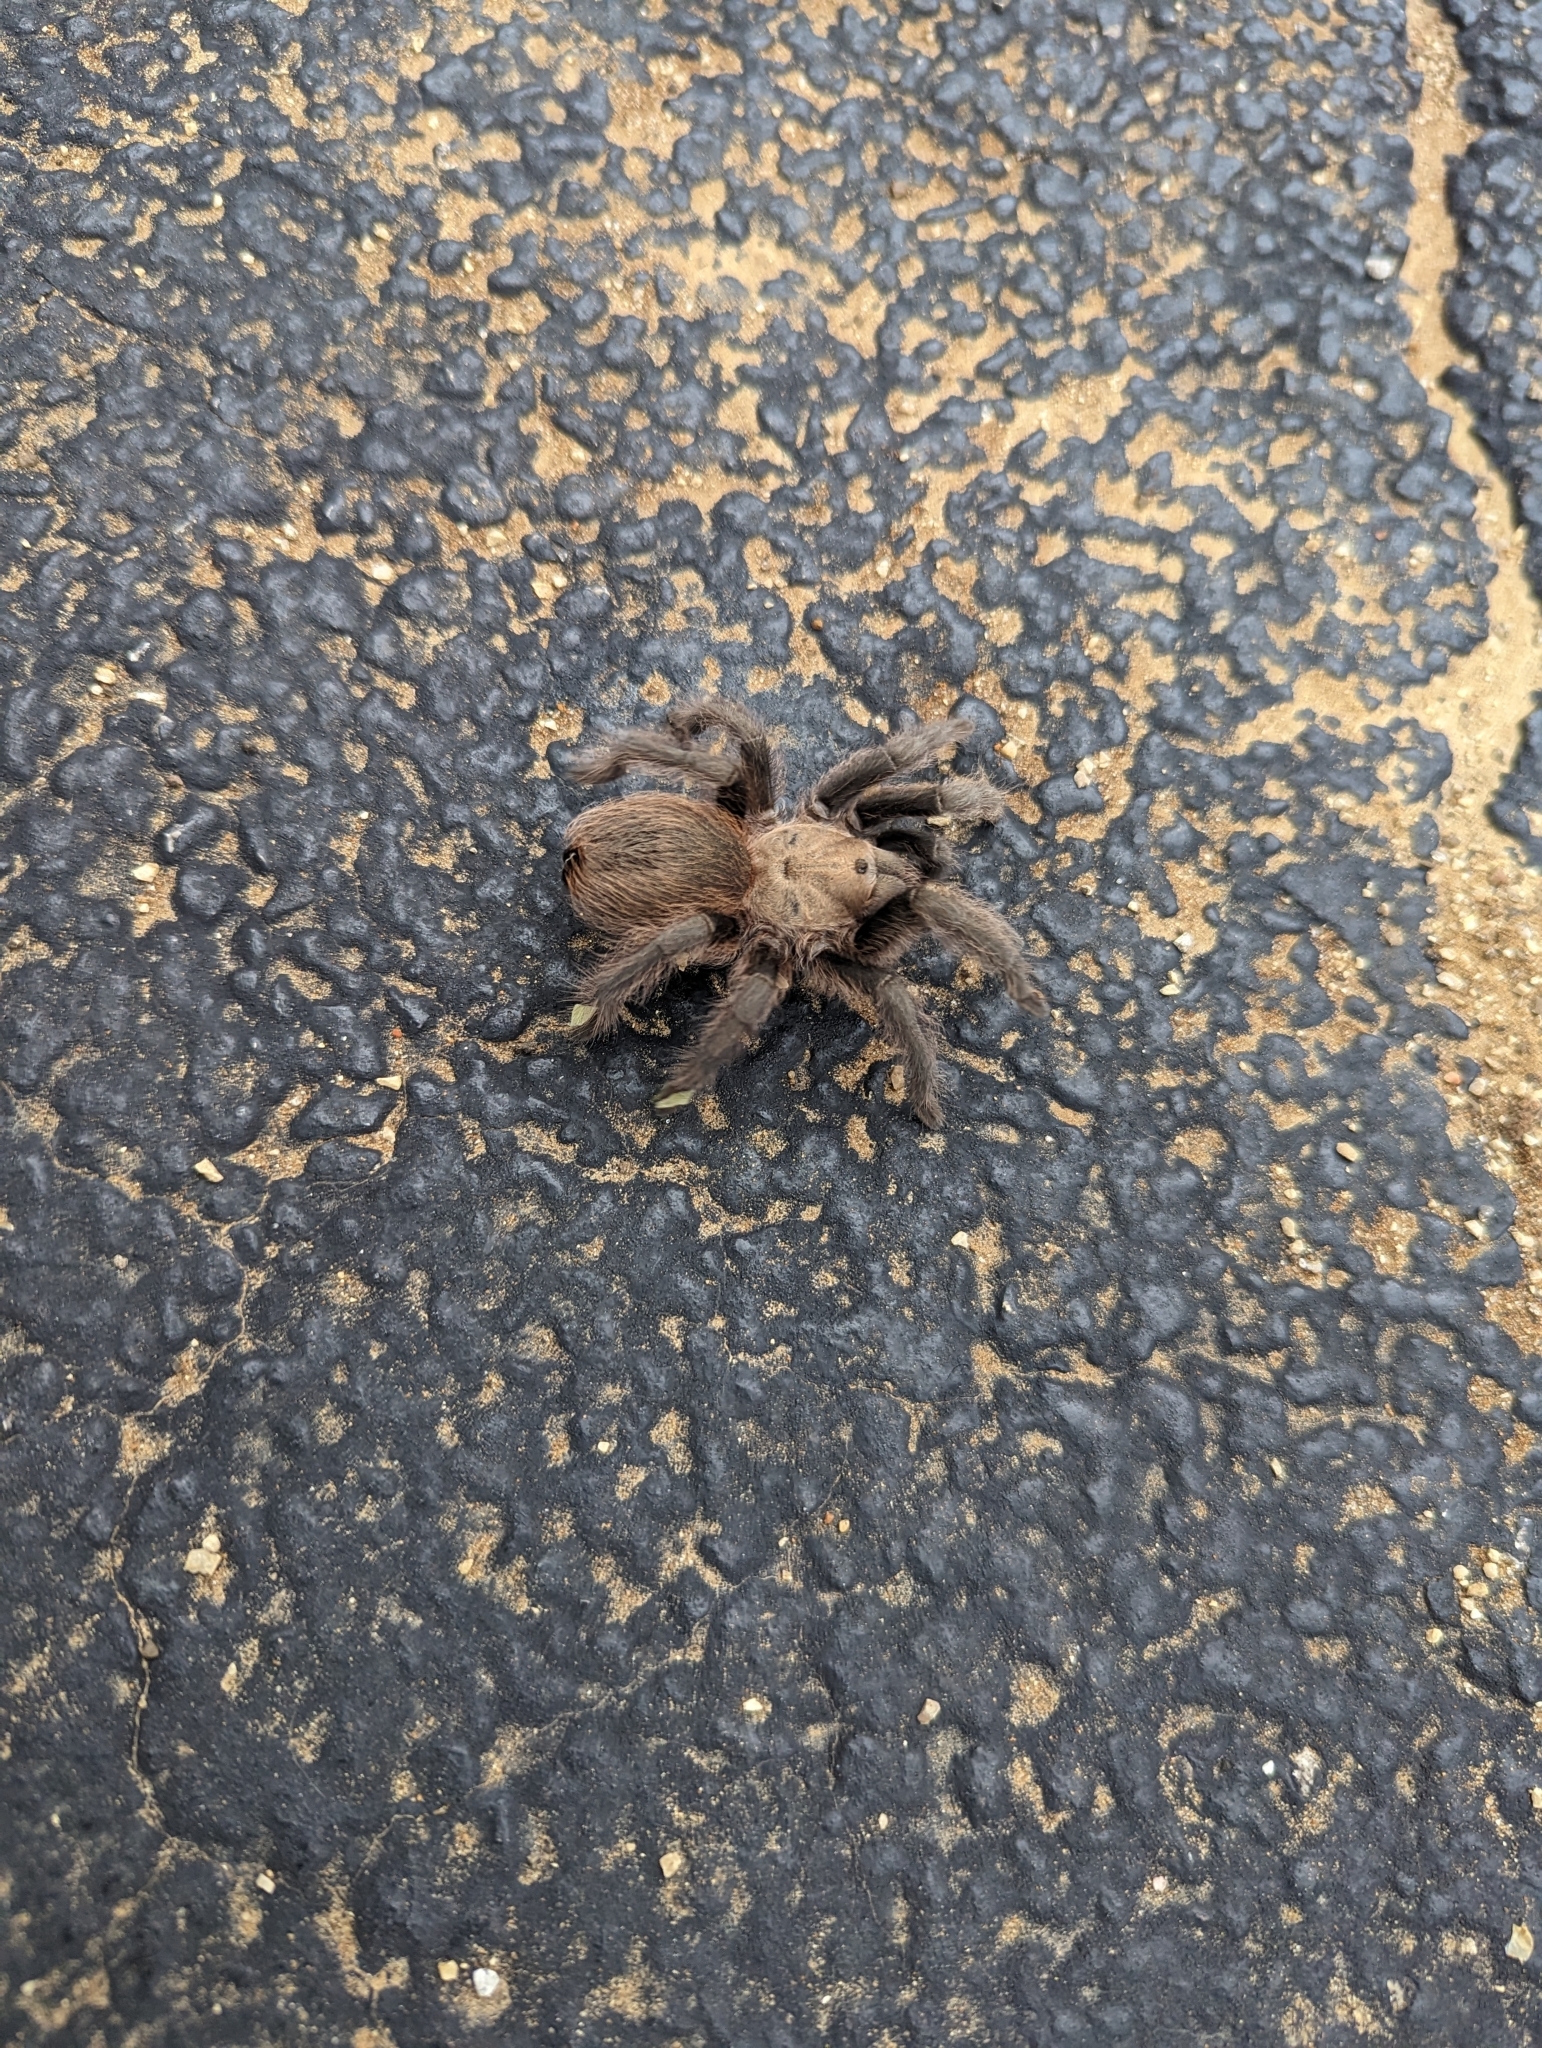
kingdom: Animalia
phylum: Arthropoda
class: Arachnida
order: Araneae
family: Theraphosidae
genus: Aphonopelma
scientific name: Aphonopelma anax
